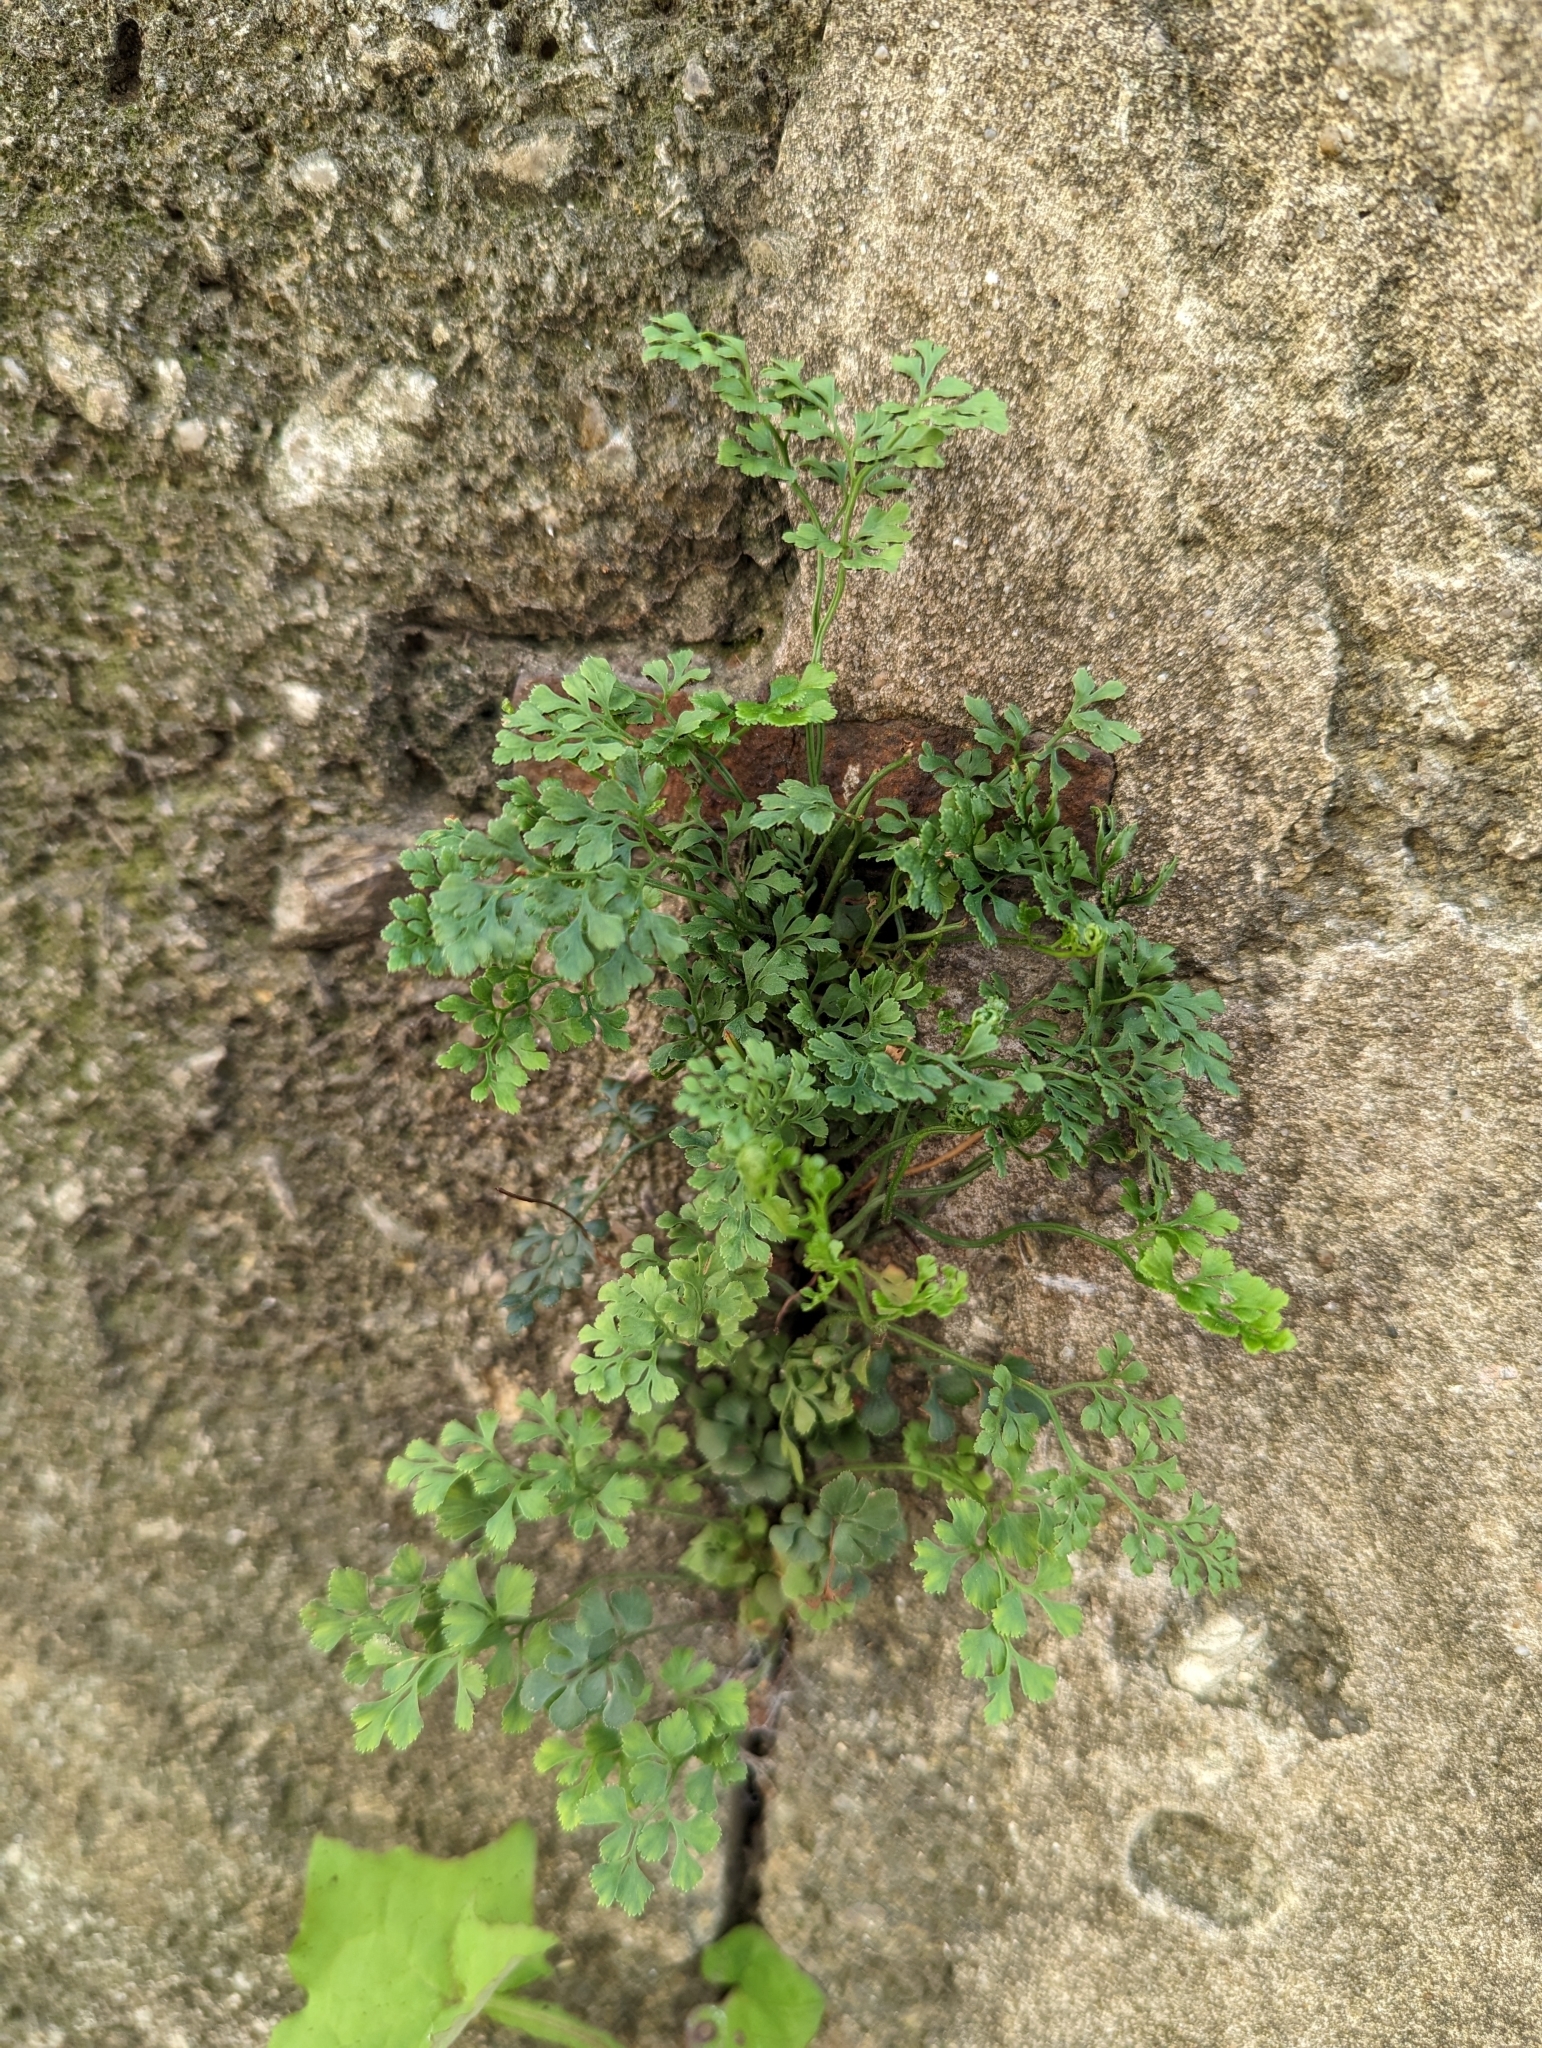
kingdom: Plantae
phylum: Tracheophyta
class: Polypodiopsida
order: Polypodiales
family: Aspleniaceae
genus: Asplenium
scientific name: Asplenium ruta-muraria
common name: Wall-rue
